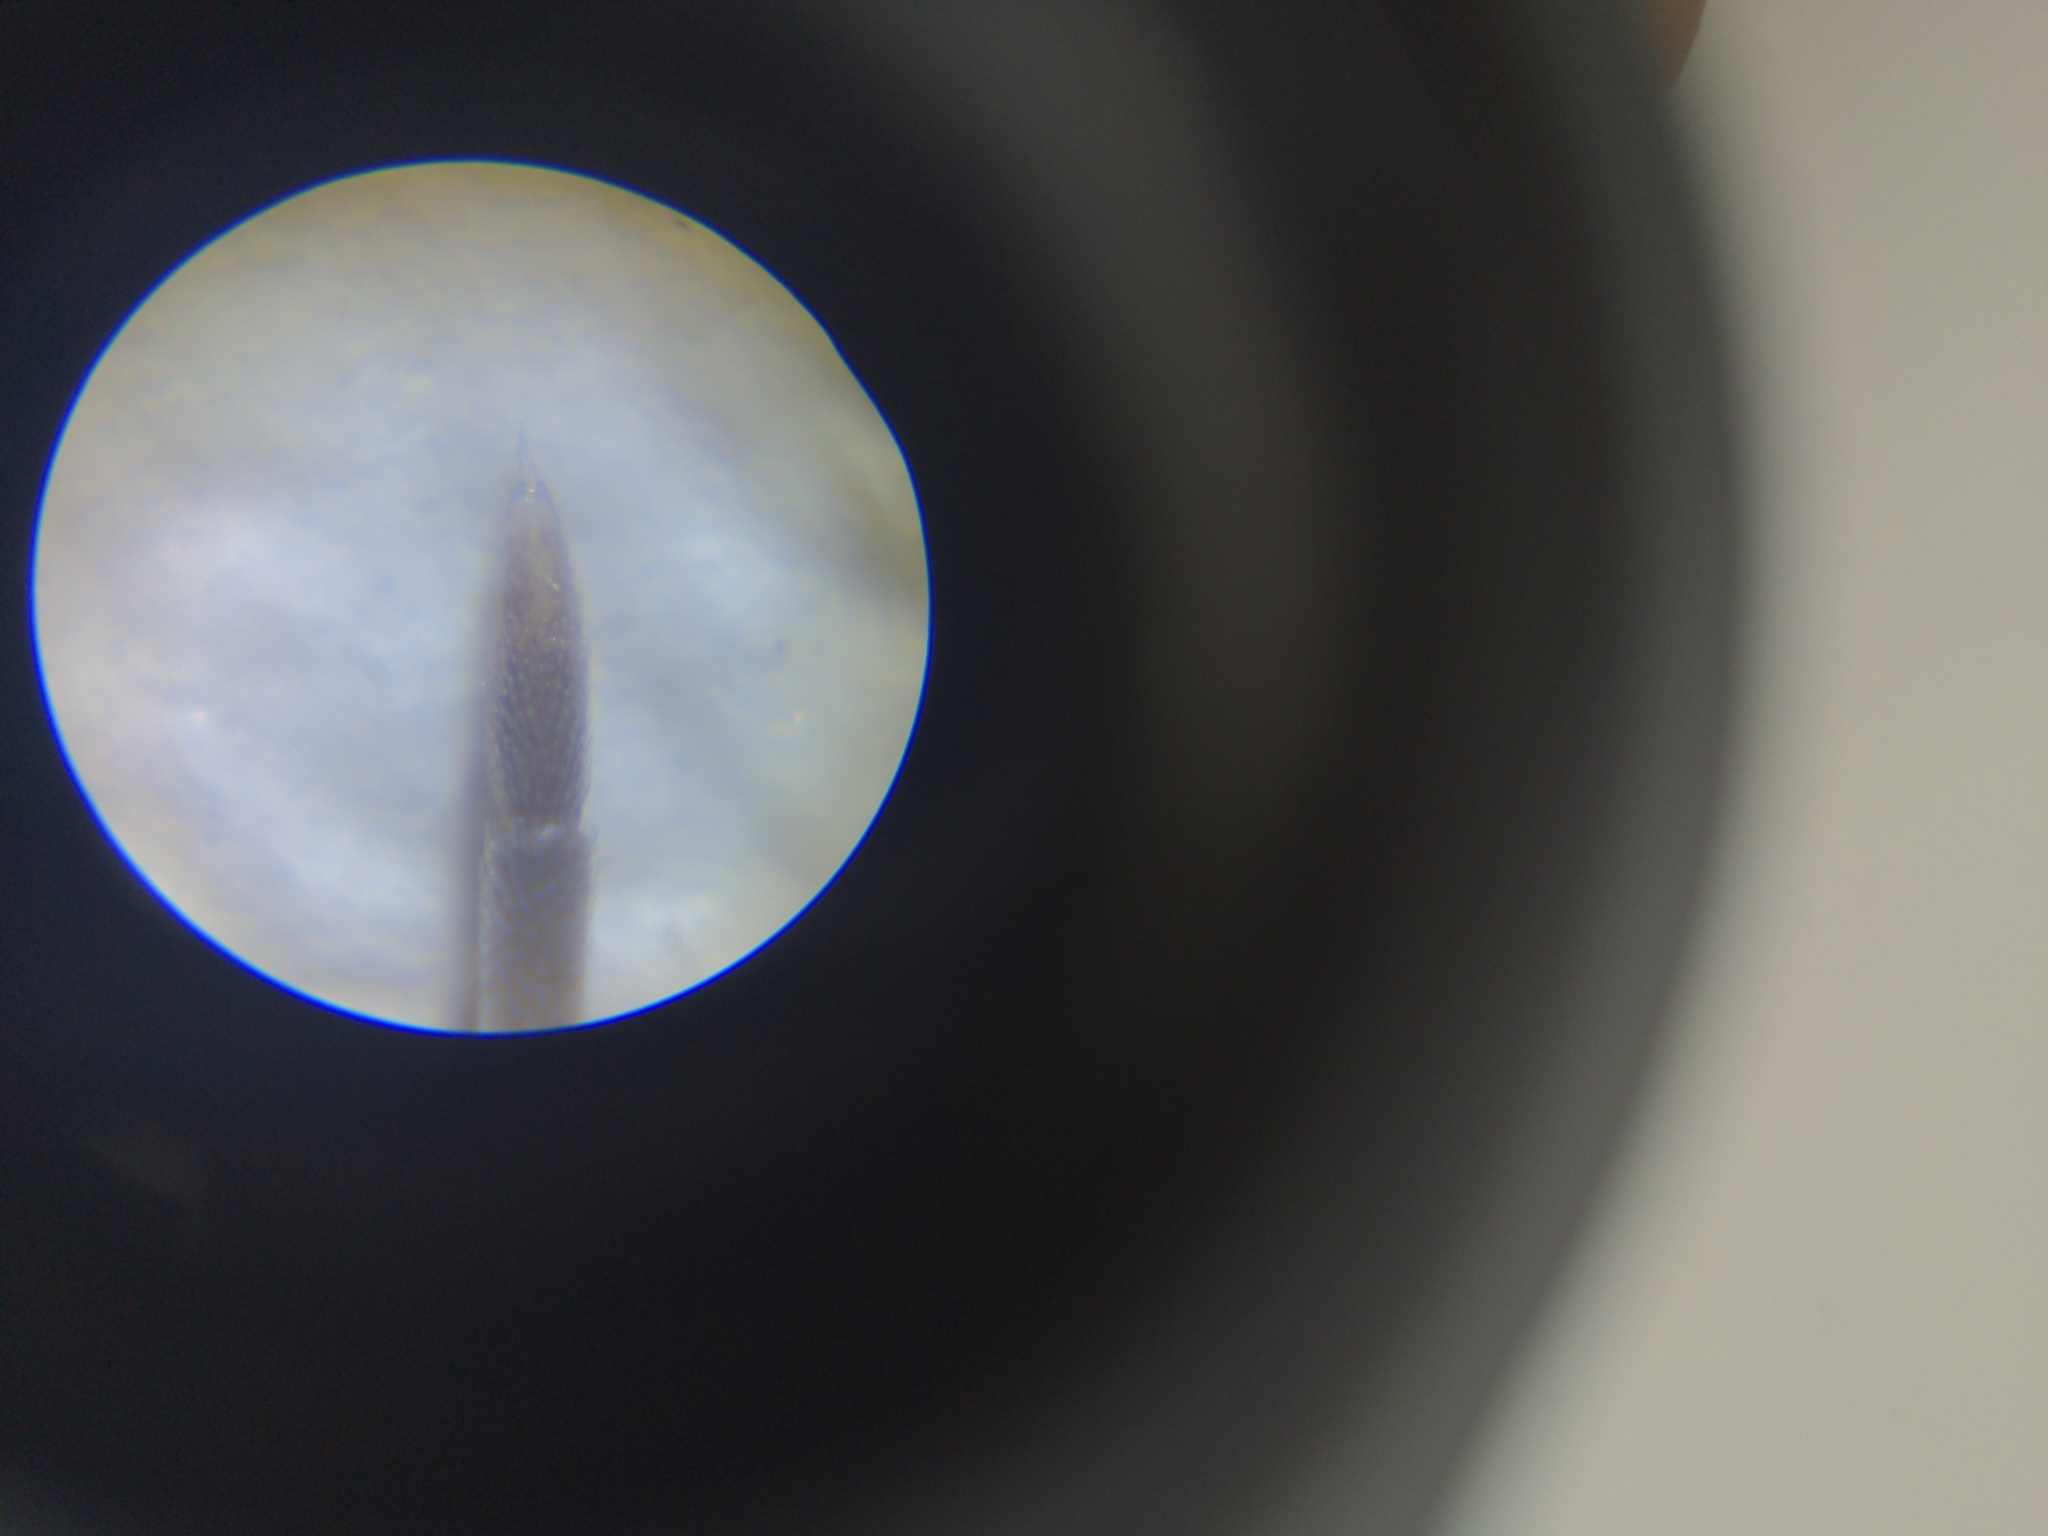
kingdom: Animalia
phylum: Arthropoda
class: Malacostraca
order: Isopoda
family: Porcellionidae
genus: Porcellio
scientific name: Porcellio spinicornis
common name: Painted woodlouse
